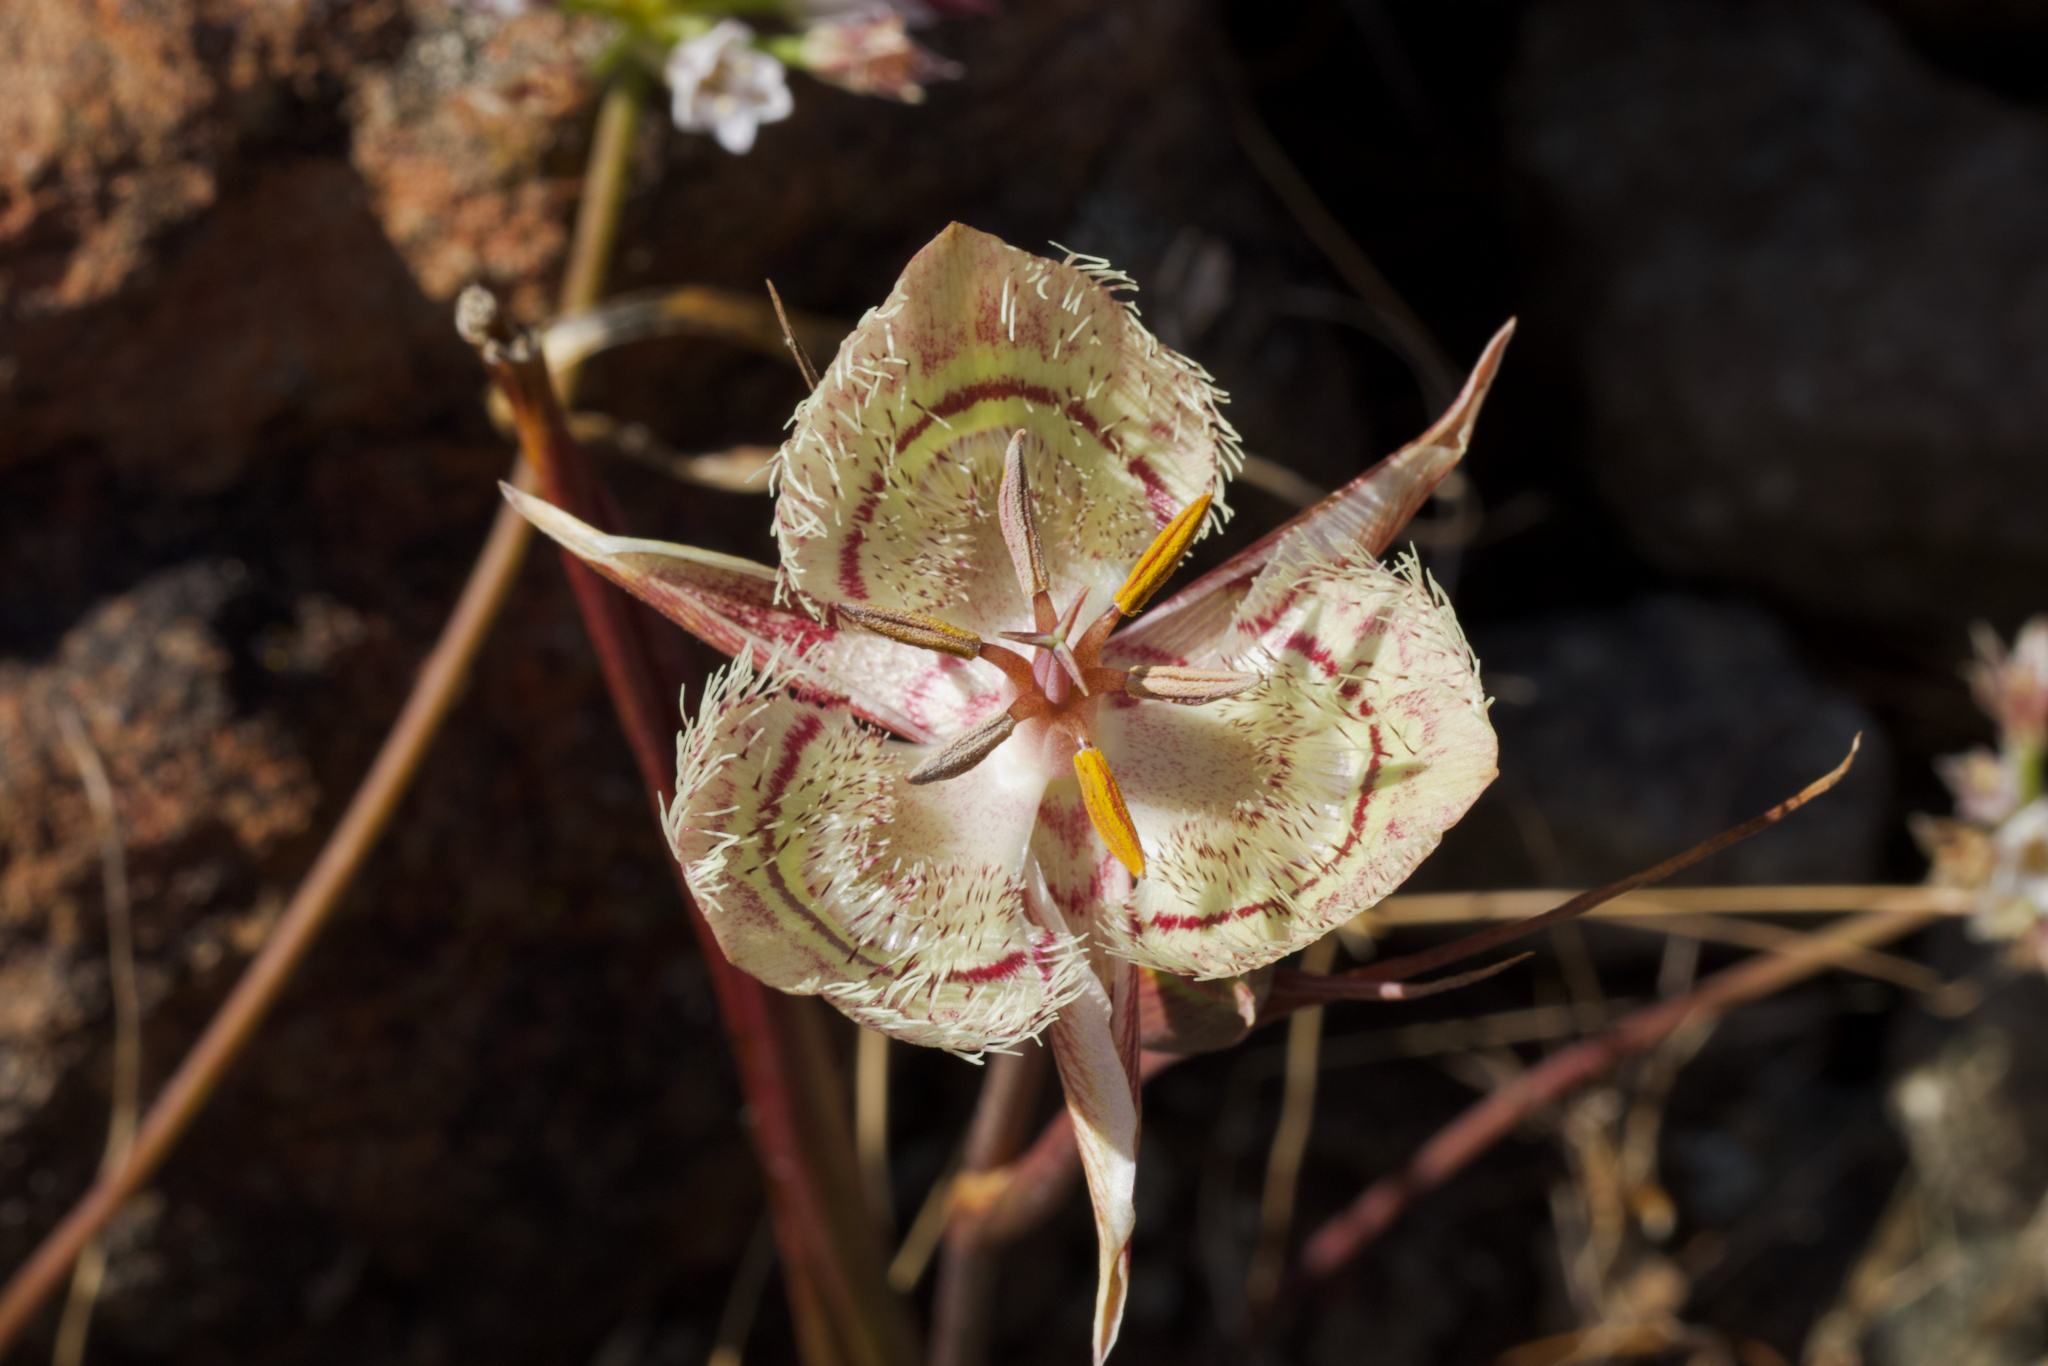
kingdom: Plantae
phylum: Tracheophyta
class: Liliopsida
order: Liliales
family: Liliaceae
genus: Calochortus
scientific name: Calochortus tiburonensis
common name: Tiburon mariposa-lily
